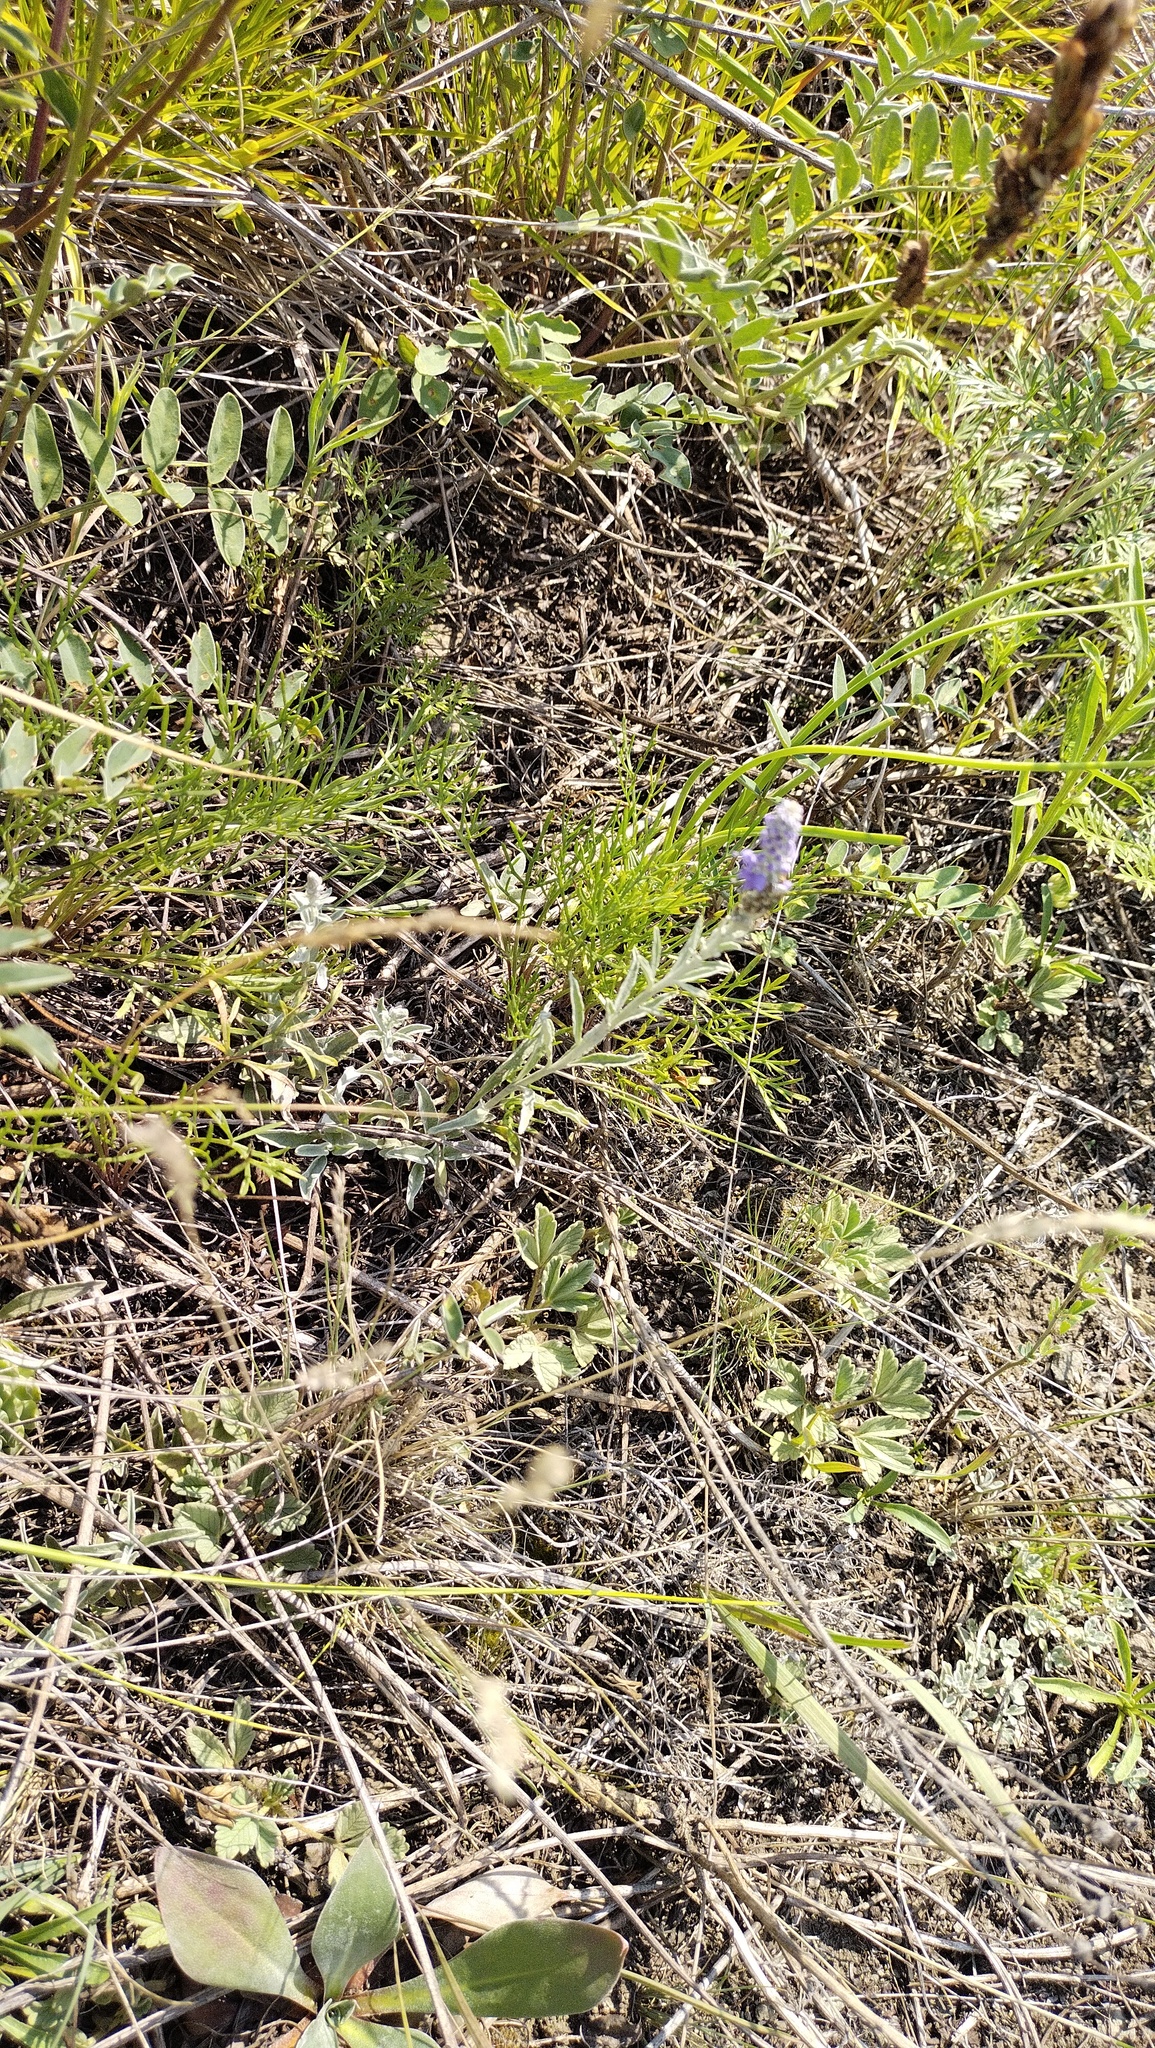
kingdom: Plantae
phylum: Tracheophyta
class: Magnoliopsida
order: Lamiales
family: Plantaginaceae
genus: Veronica
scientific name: Veronica incana
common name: Silver speedwell
